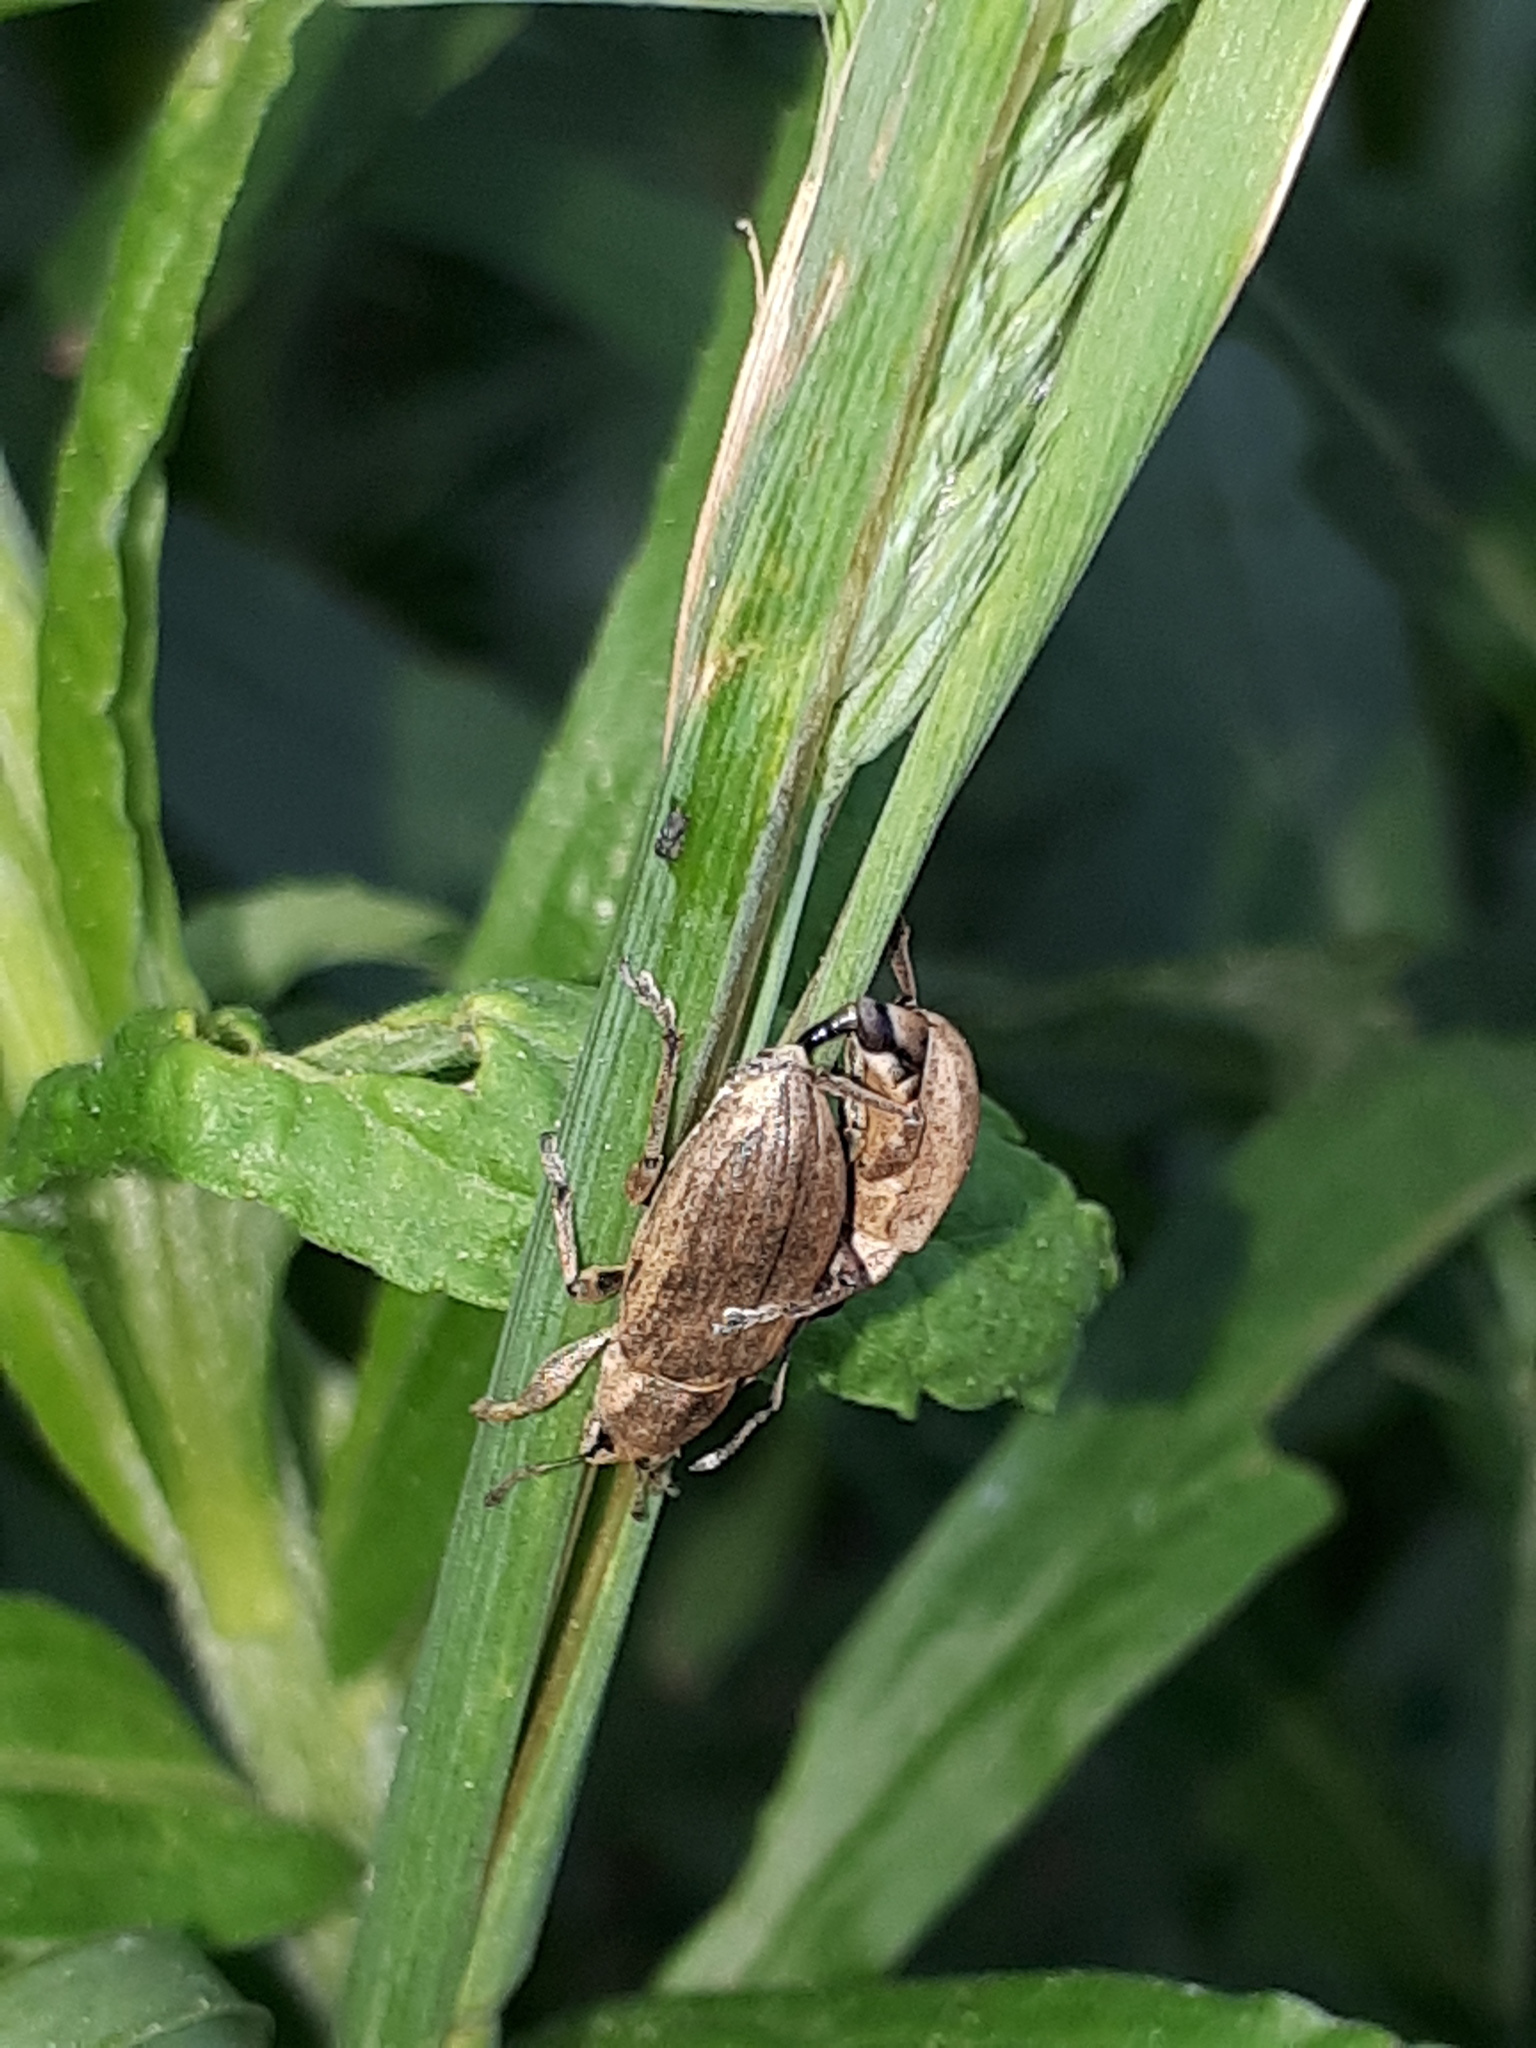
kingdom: Animalia
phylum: Arthropoda
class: Insecta
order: Coleoptera
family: Curculionidae
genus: Tanymecus
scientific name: Tanymecus palliatus
